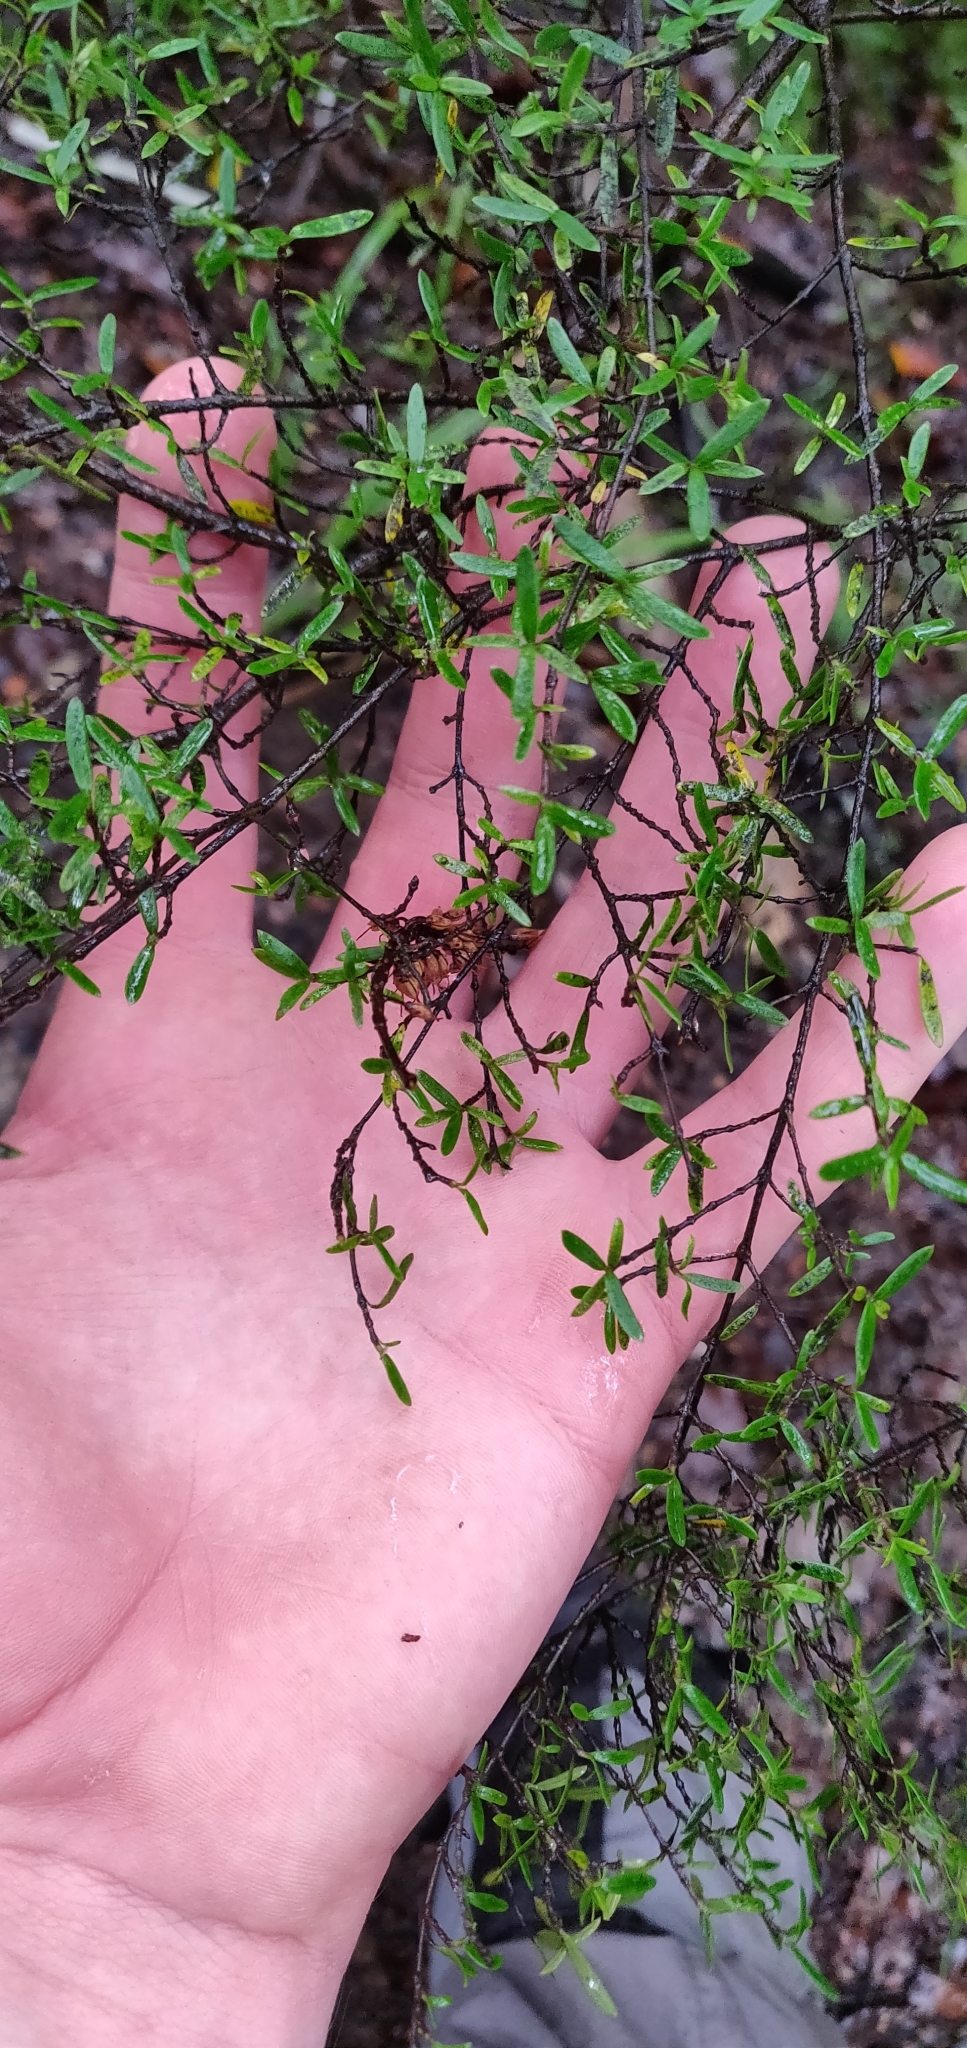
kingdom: Plantae
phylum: Tracheophyta
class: Magnoliopsida
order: Gentianales
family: Rubiaceae
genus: Coprosma
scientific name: Coprosma linariifolia
